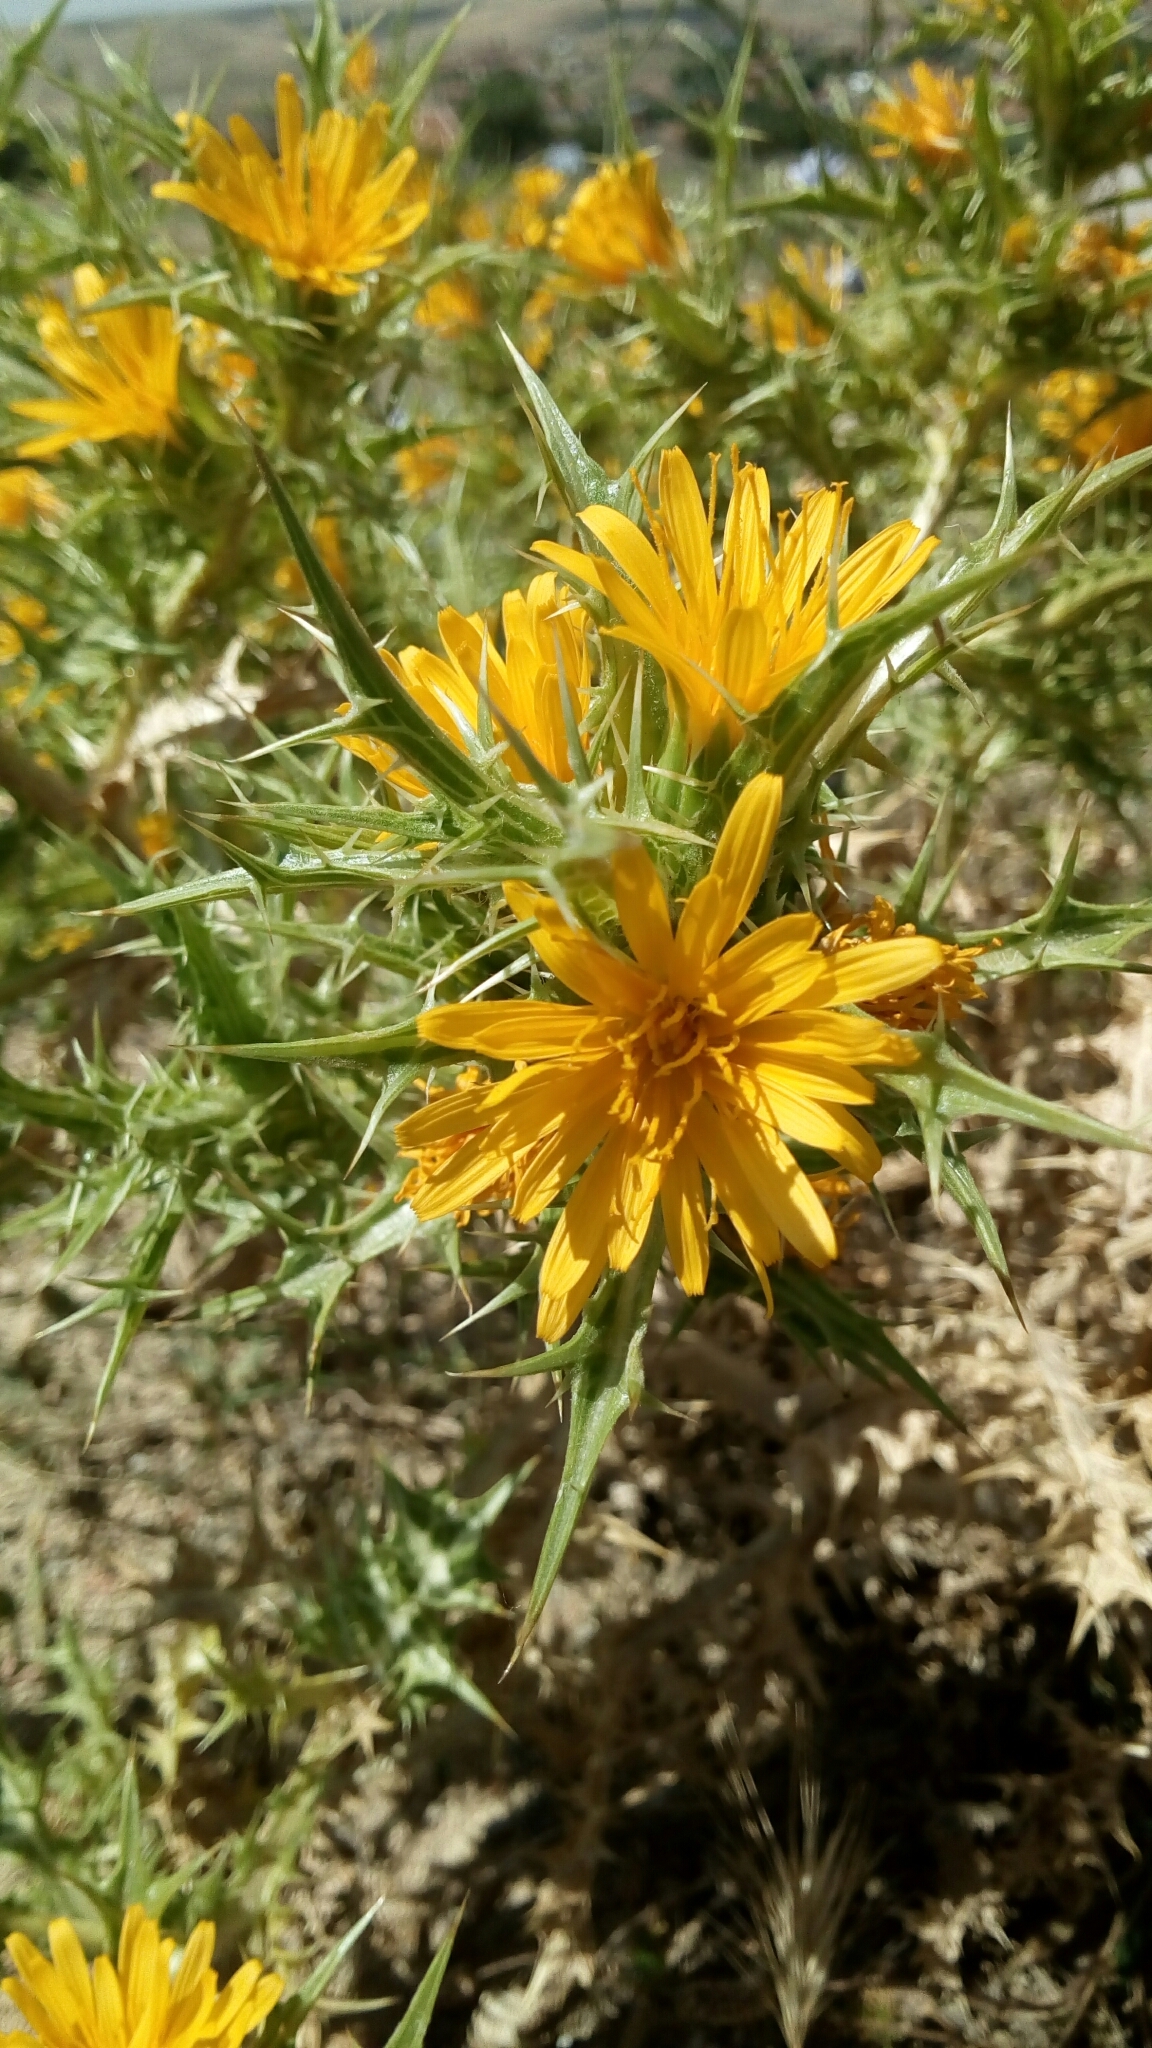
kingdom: Plantae
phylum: Tracheophyta
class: Magnoliopsida
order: Asterales
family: Asteraceae
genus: Scolymus
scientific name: Scolymus hispanicus
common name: Golden thistle
